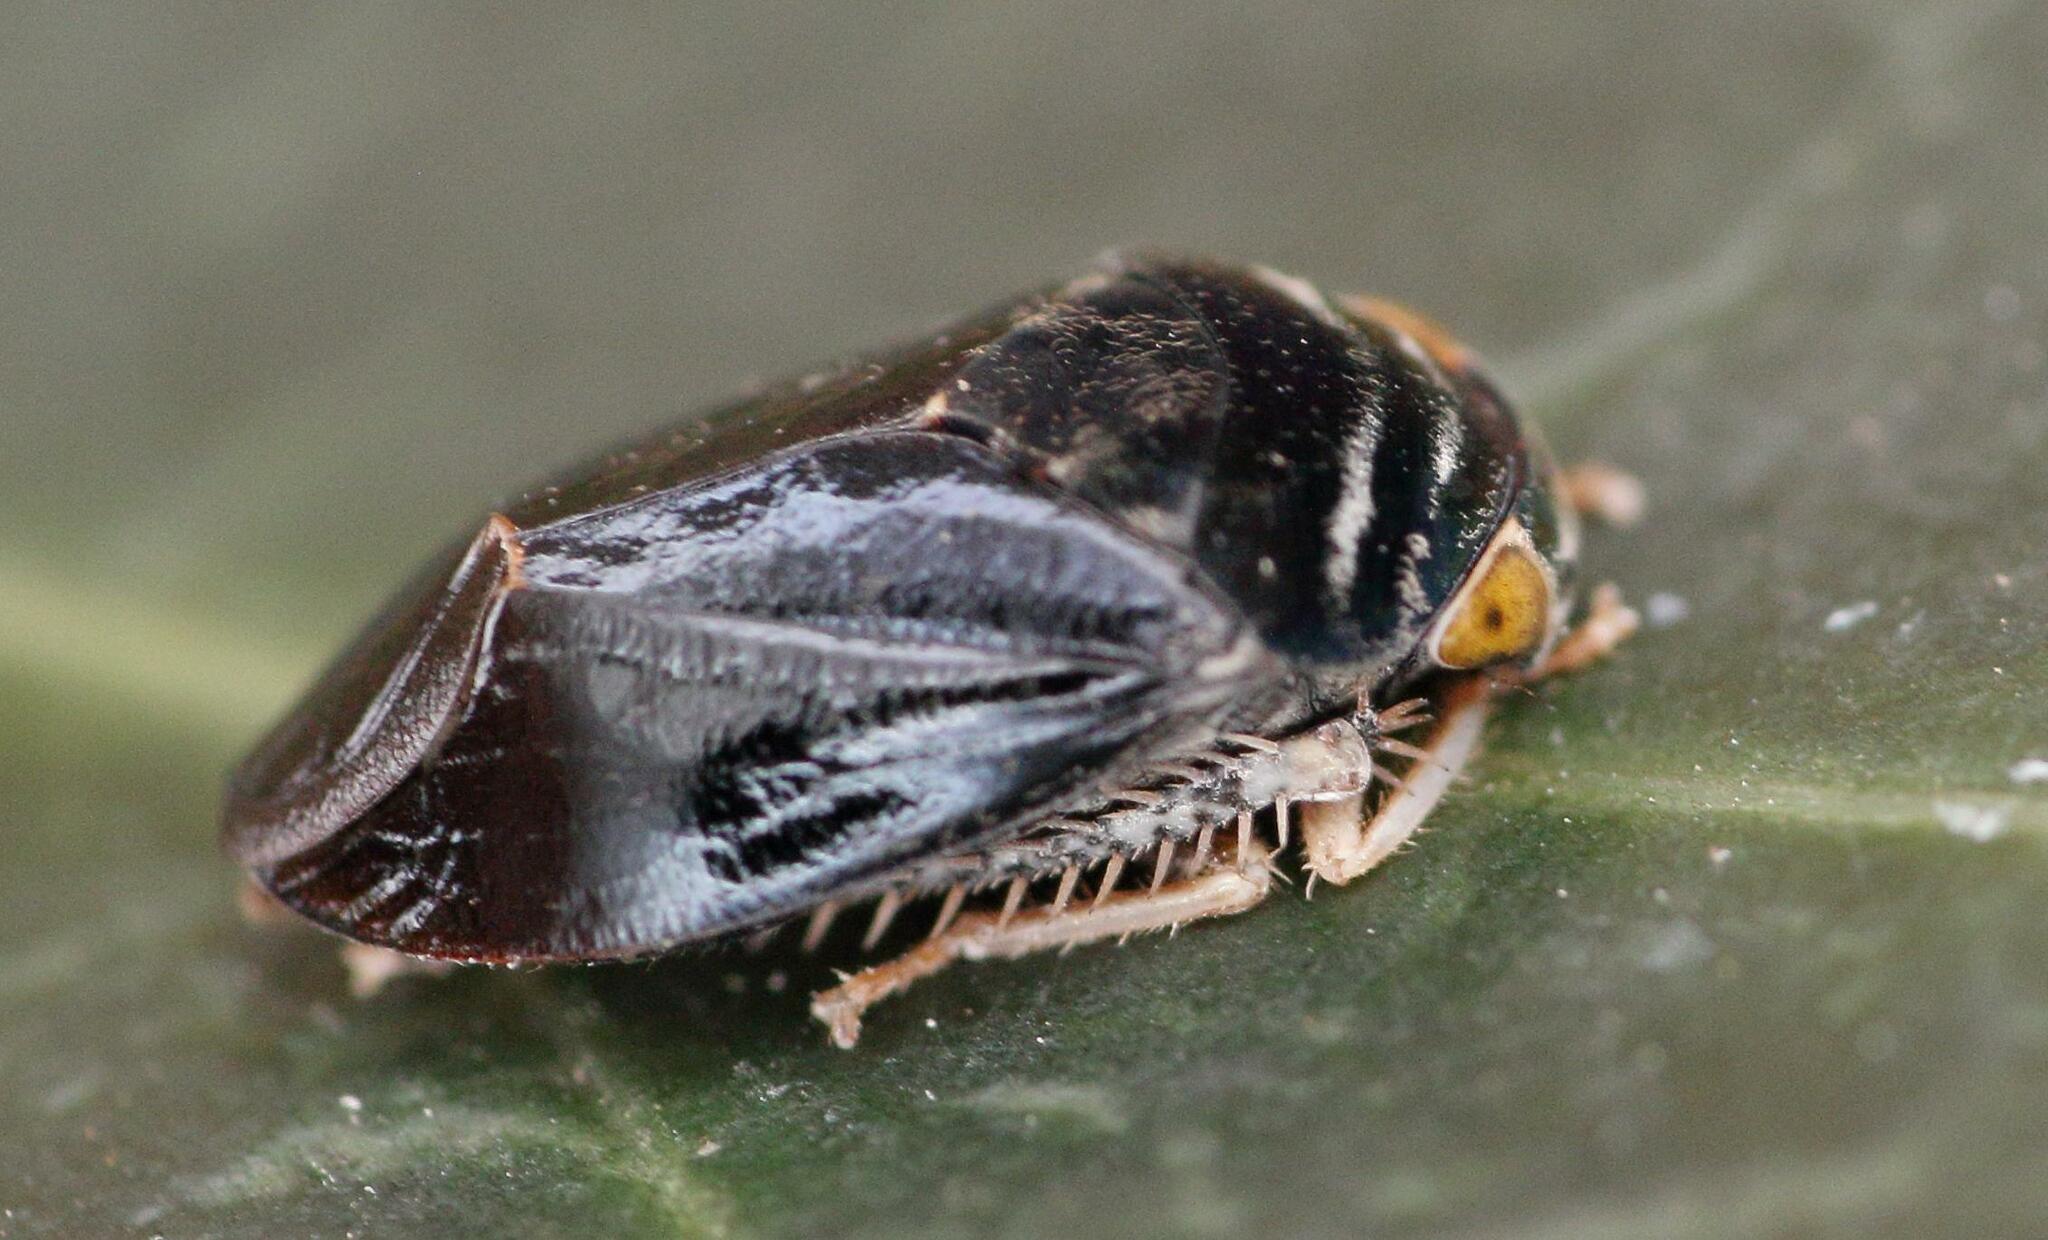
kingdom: Animalia
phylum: Arthropoda
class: Insecta
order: Hemiptera
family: Cicadellidae
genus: Penthimia
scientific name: Penthimia nitens
